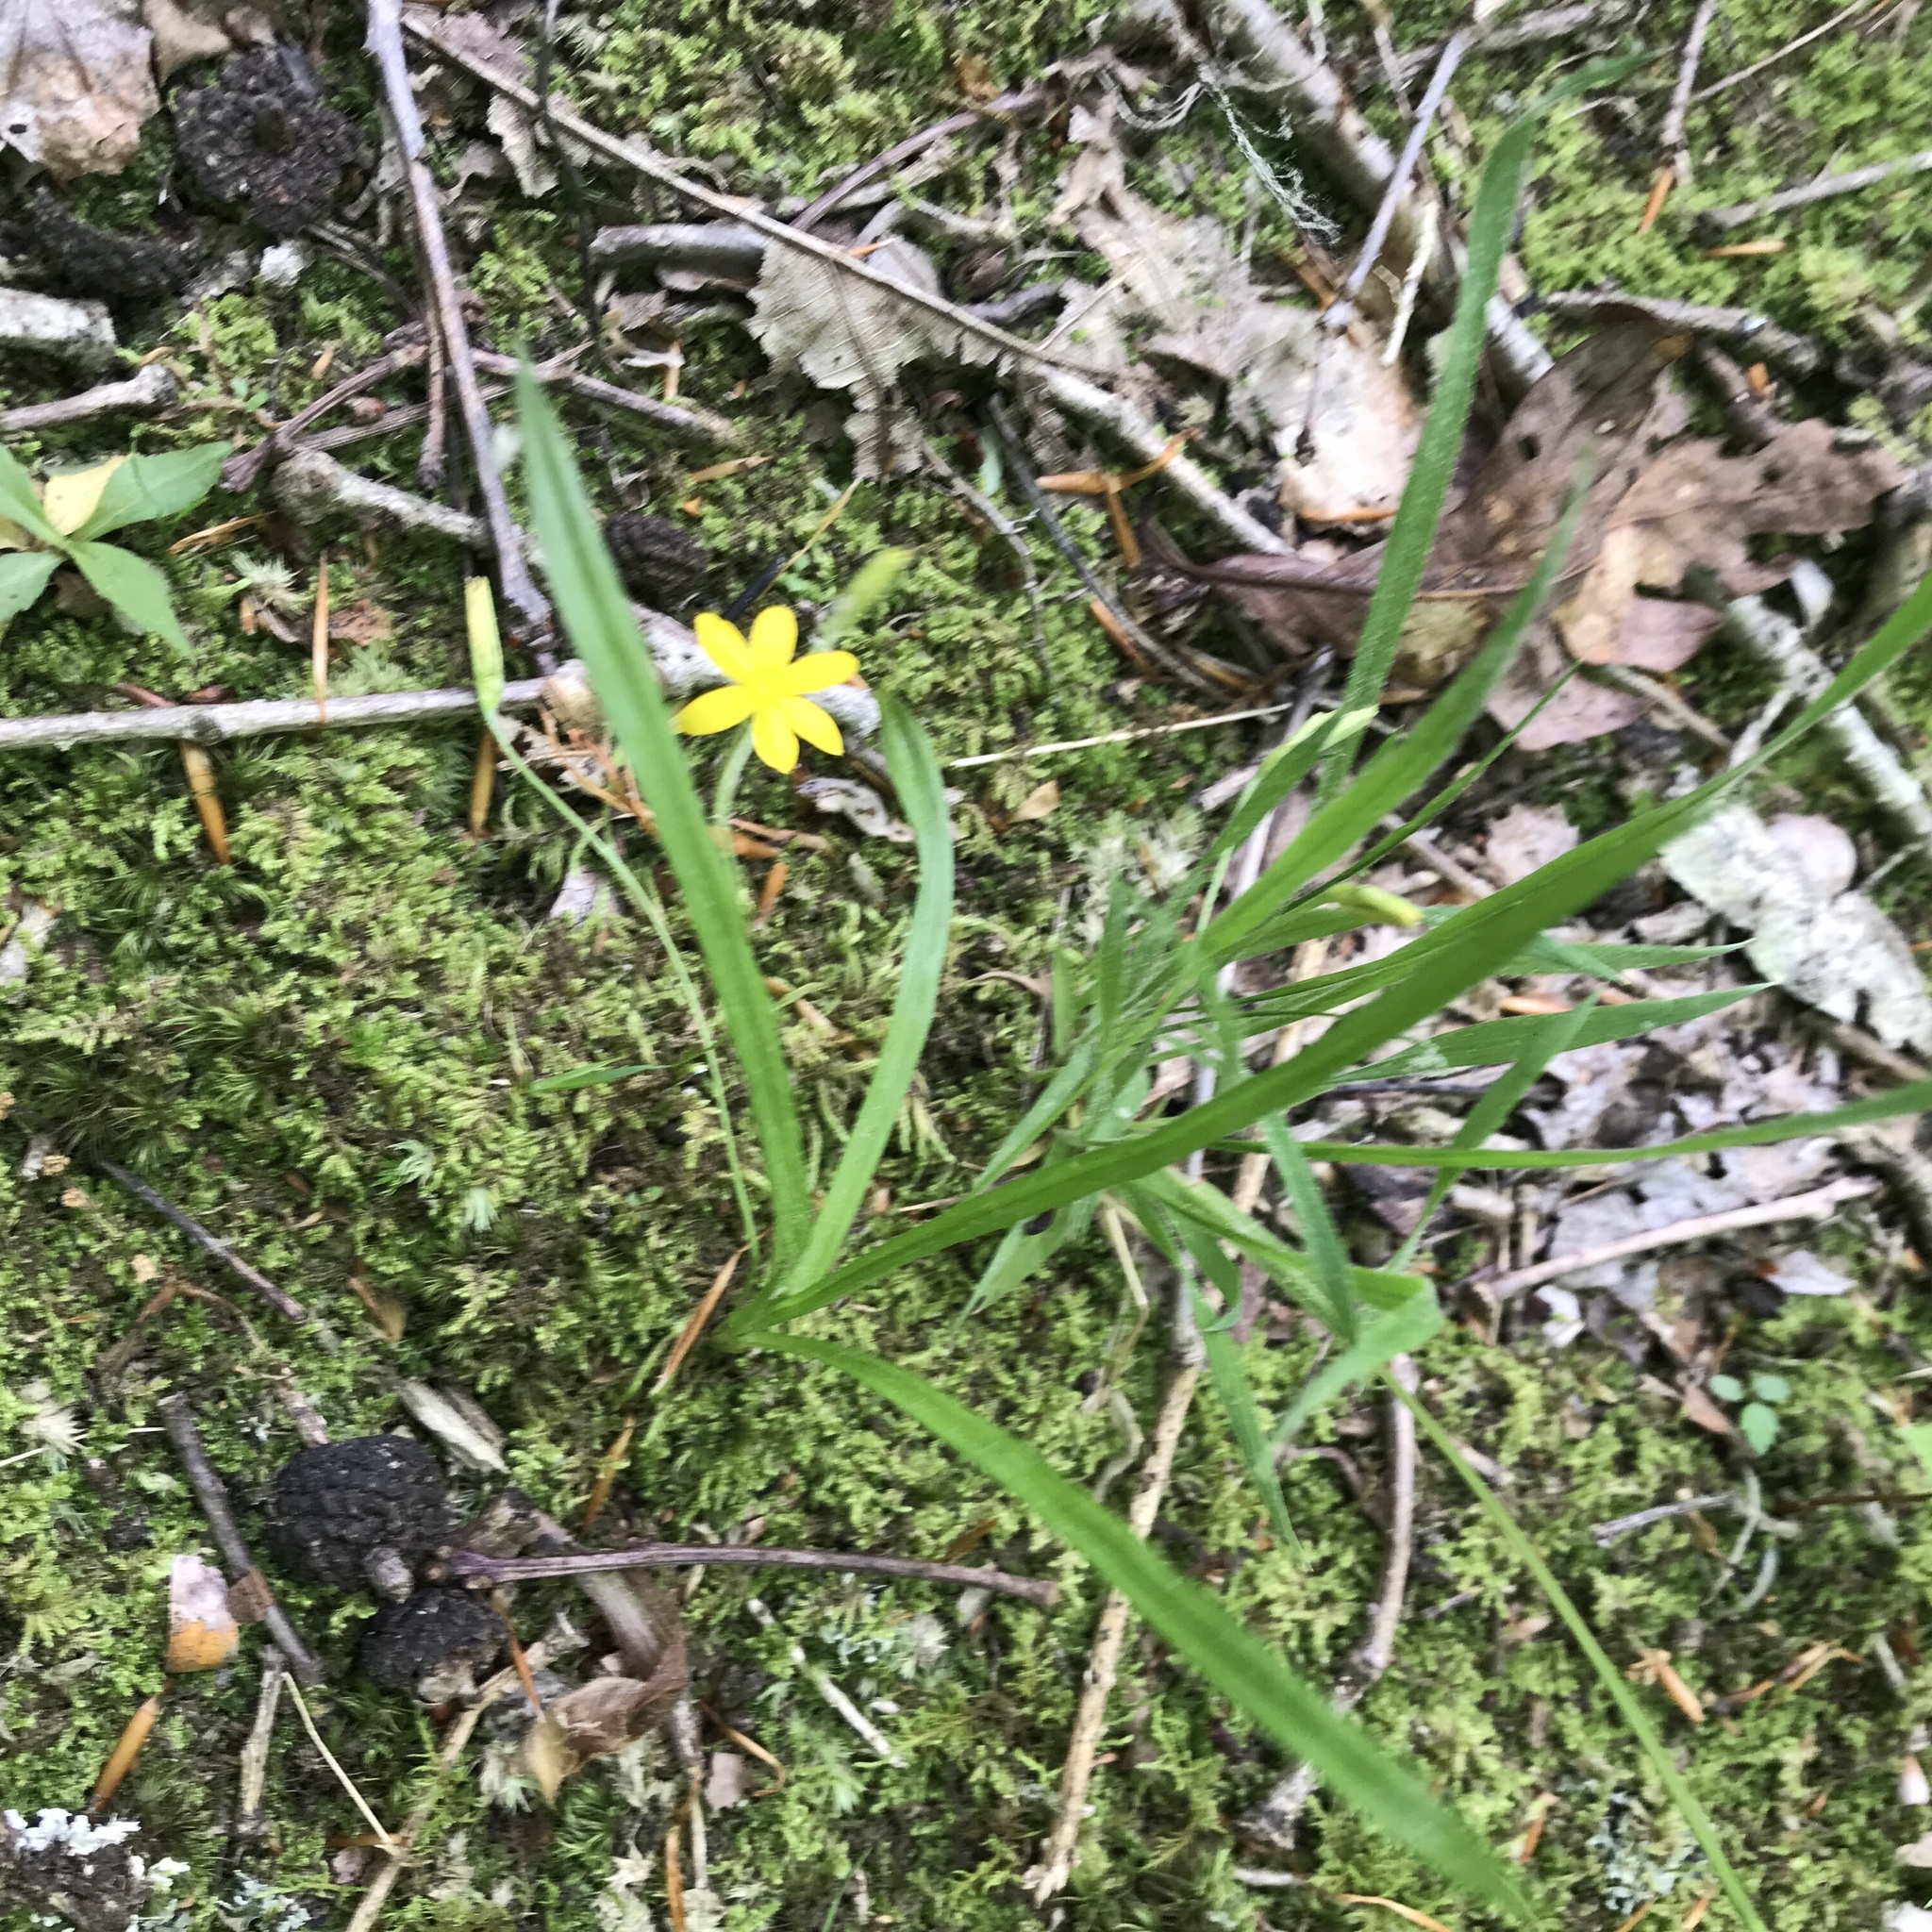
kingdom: Plantae
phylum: Tracheophyta
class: Liliopsida
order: Asparagales
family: Hypoxidaceae
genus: Hypoxis
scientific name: Hypoxis hirsuta
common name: Common goldstar
